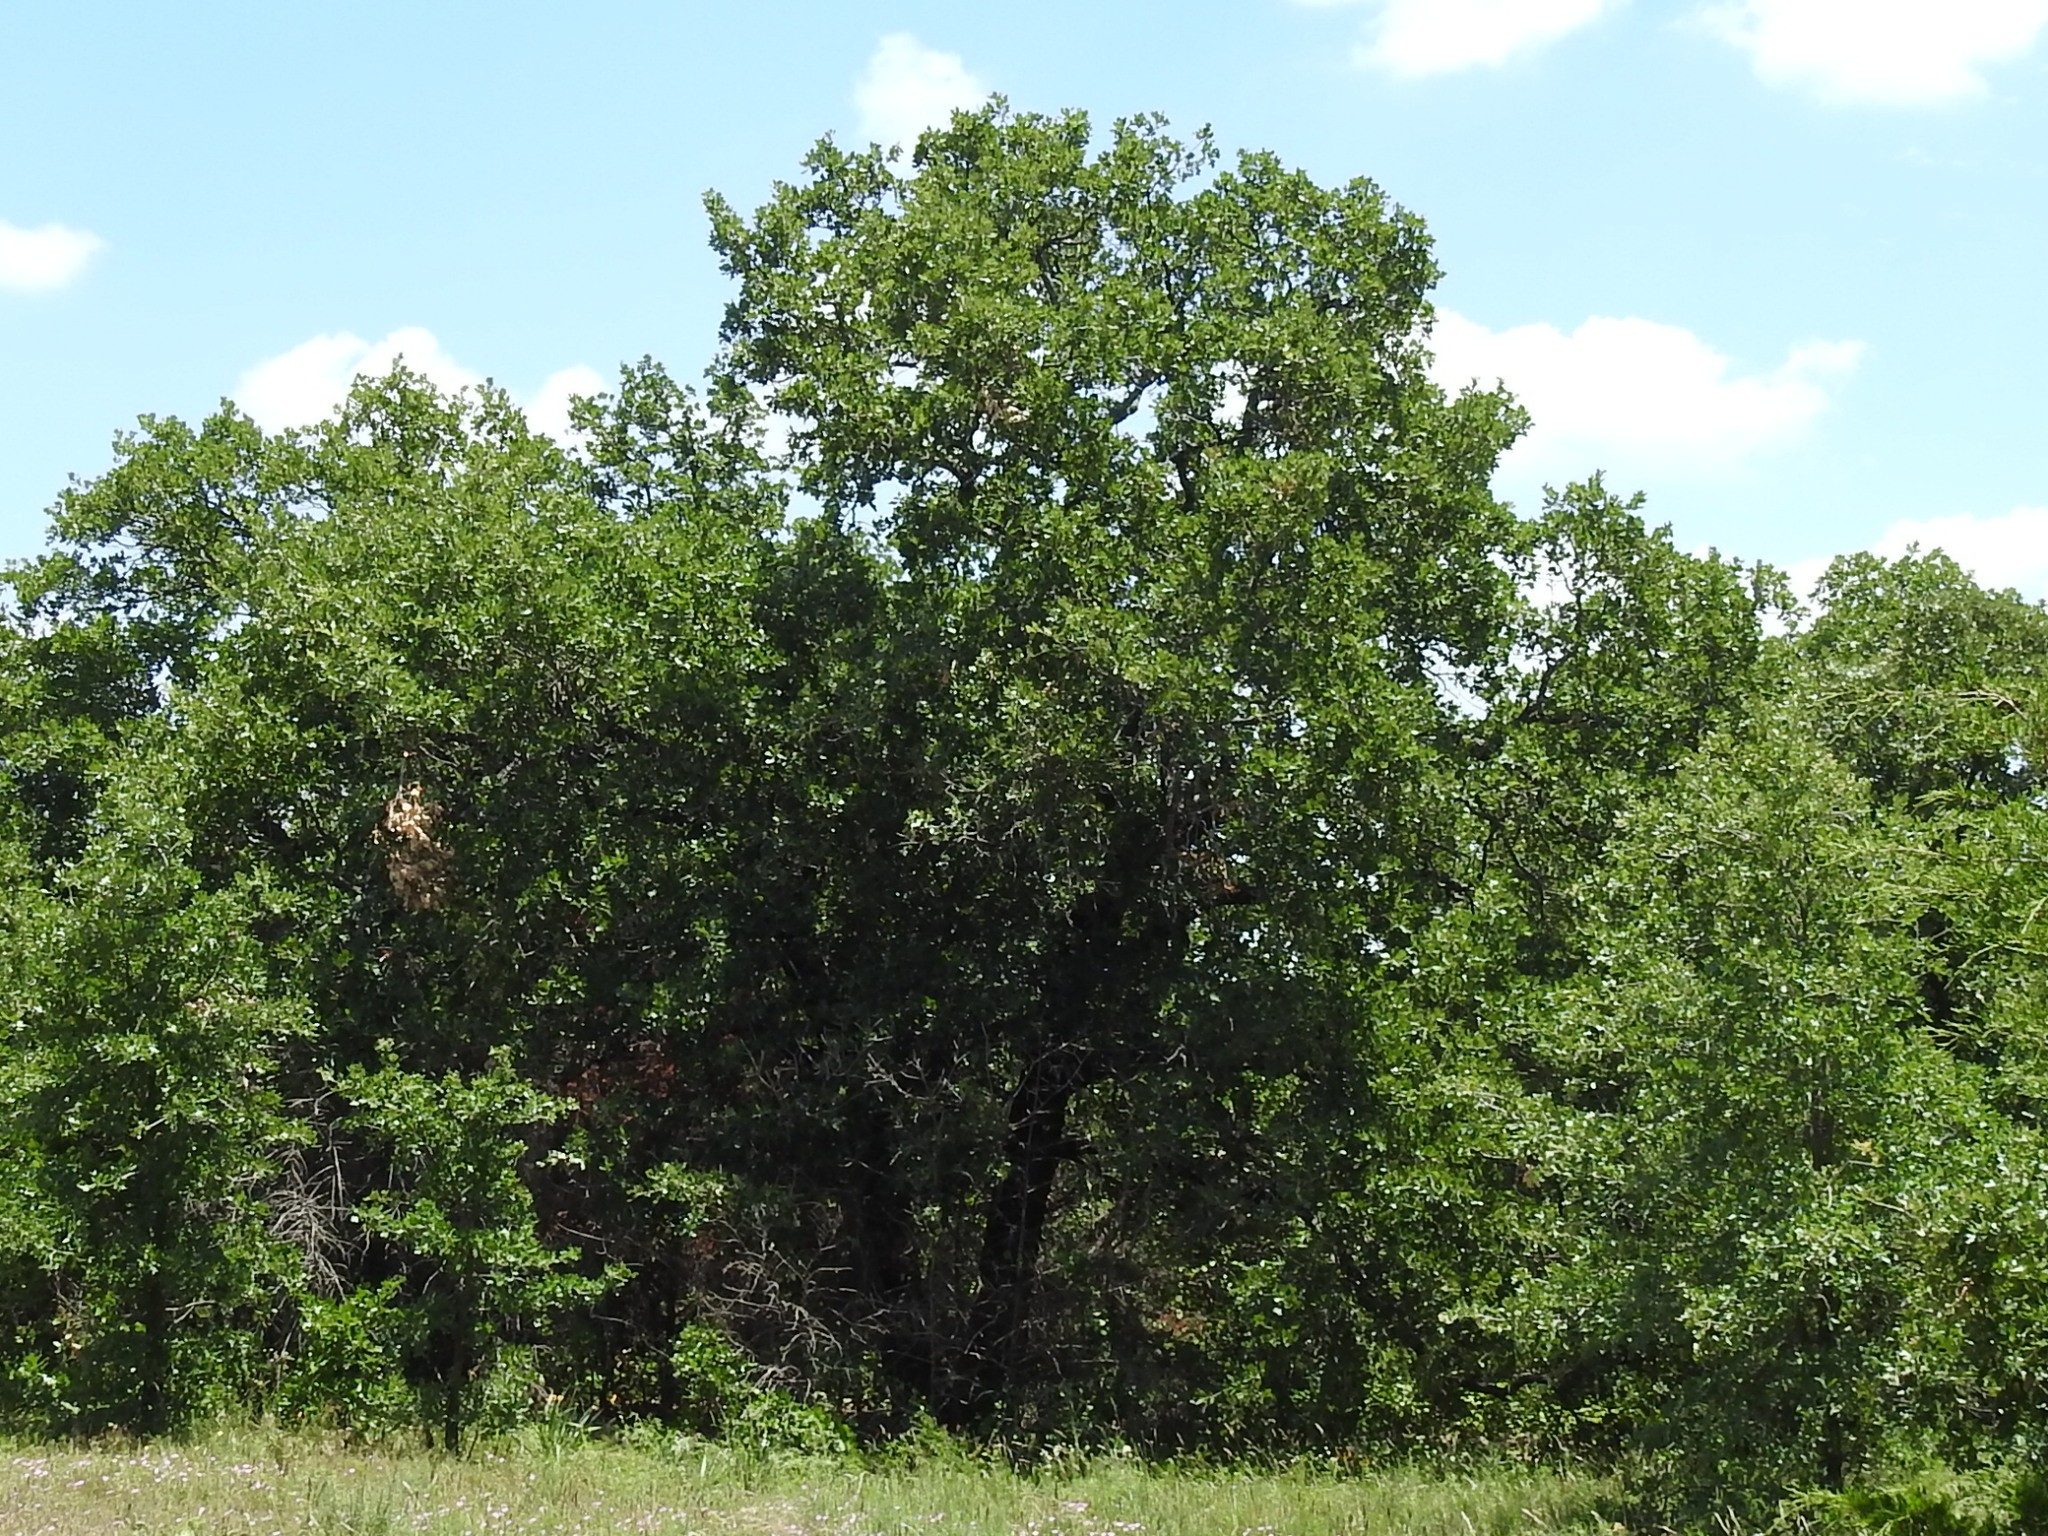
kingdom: Plantae
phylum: Tracheophyta
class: Magnoliopsida
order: Fagales
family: Fagaceae
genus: Quercus
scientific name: Quercus stellata
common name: Post oak
